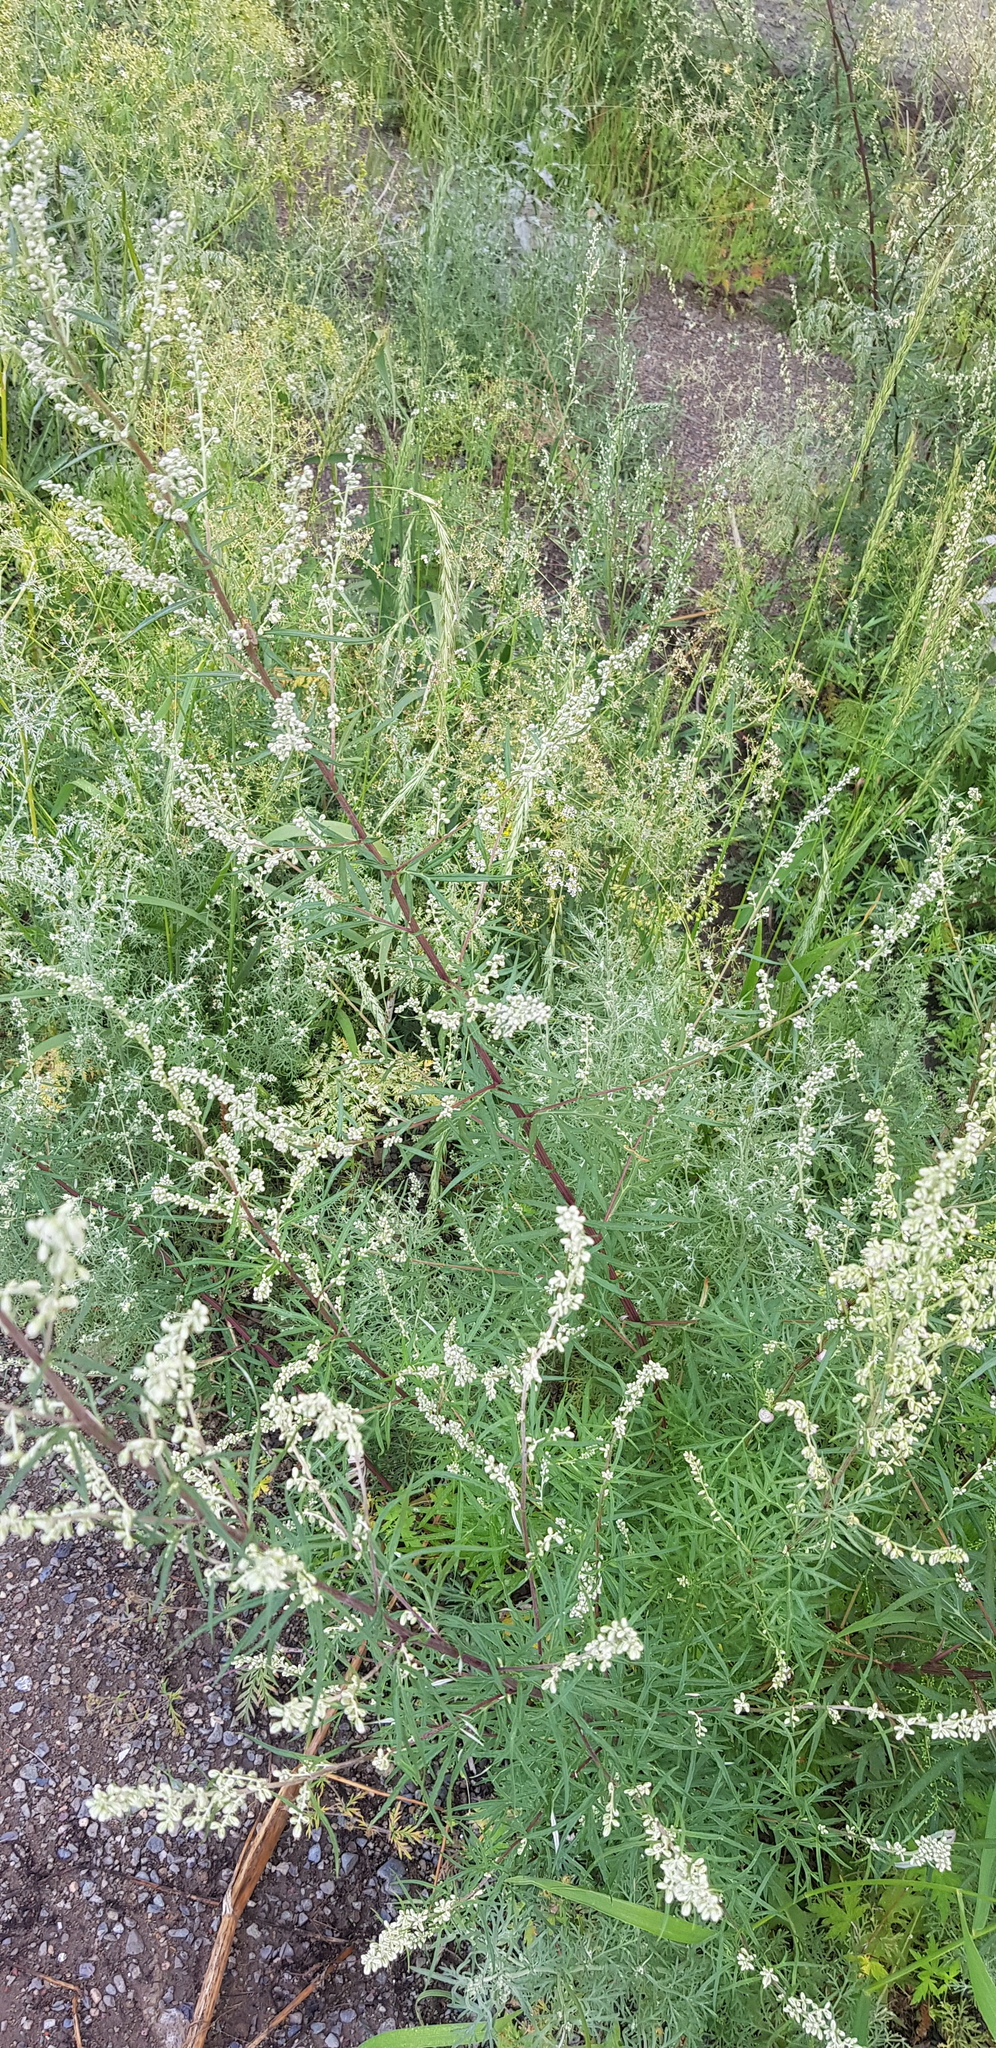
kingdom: Plantae
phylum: Tracheophyta
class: Magnoliopsida
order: Asterales
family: Asteraceae
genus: Artemisia
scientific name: Artemisia mongolica
